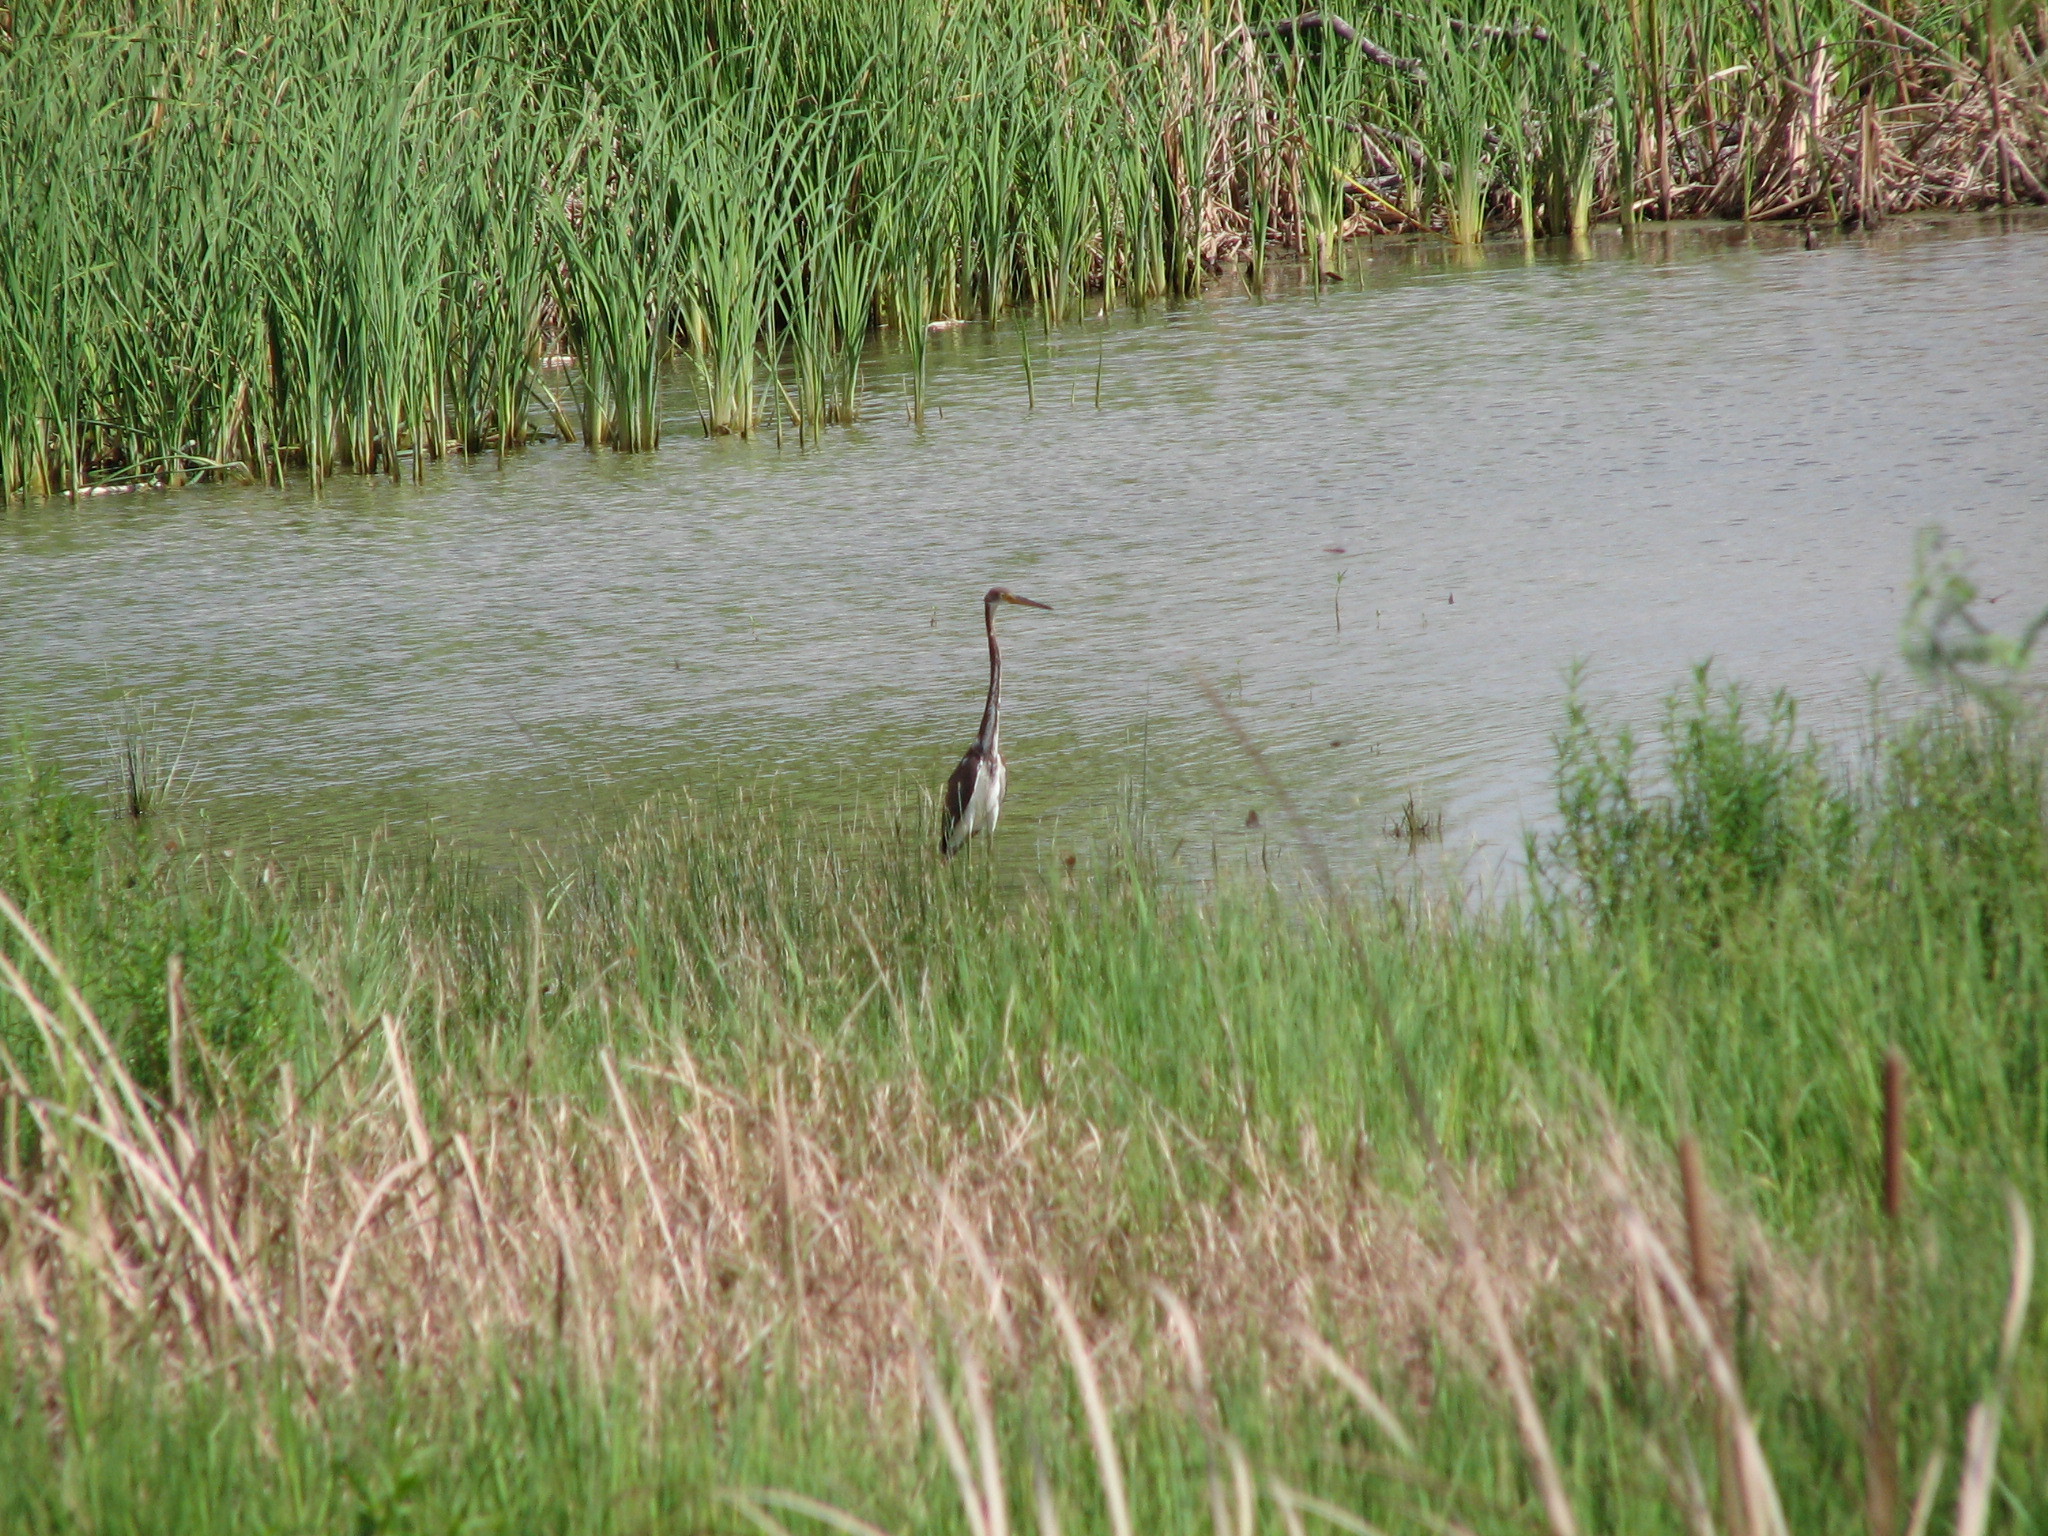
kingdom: Animalia
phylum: Chordata
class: Aves
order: Pelecaniformes
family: Ardeidae
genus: Egretta
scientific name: Egretta tricolor
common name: Tricolored heron
